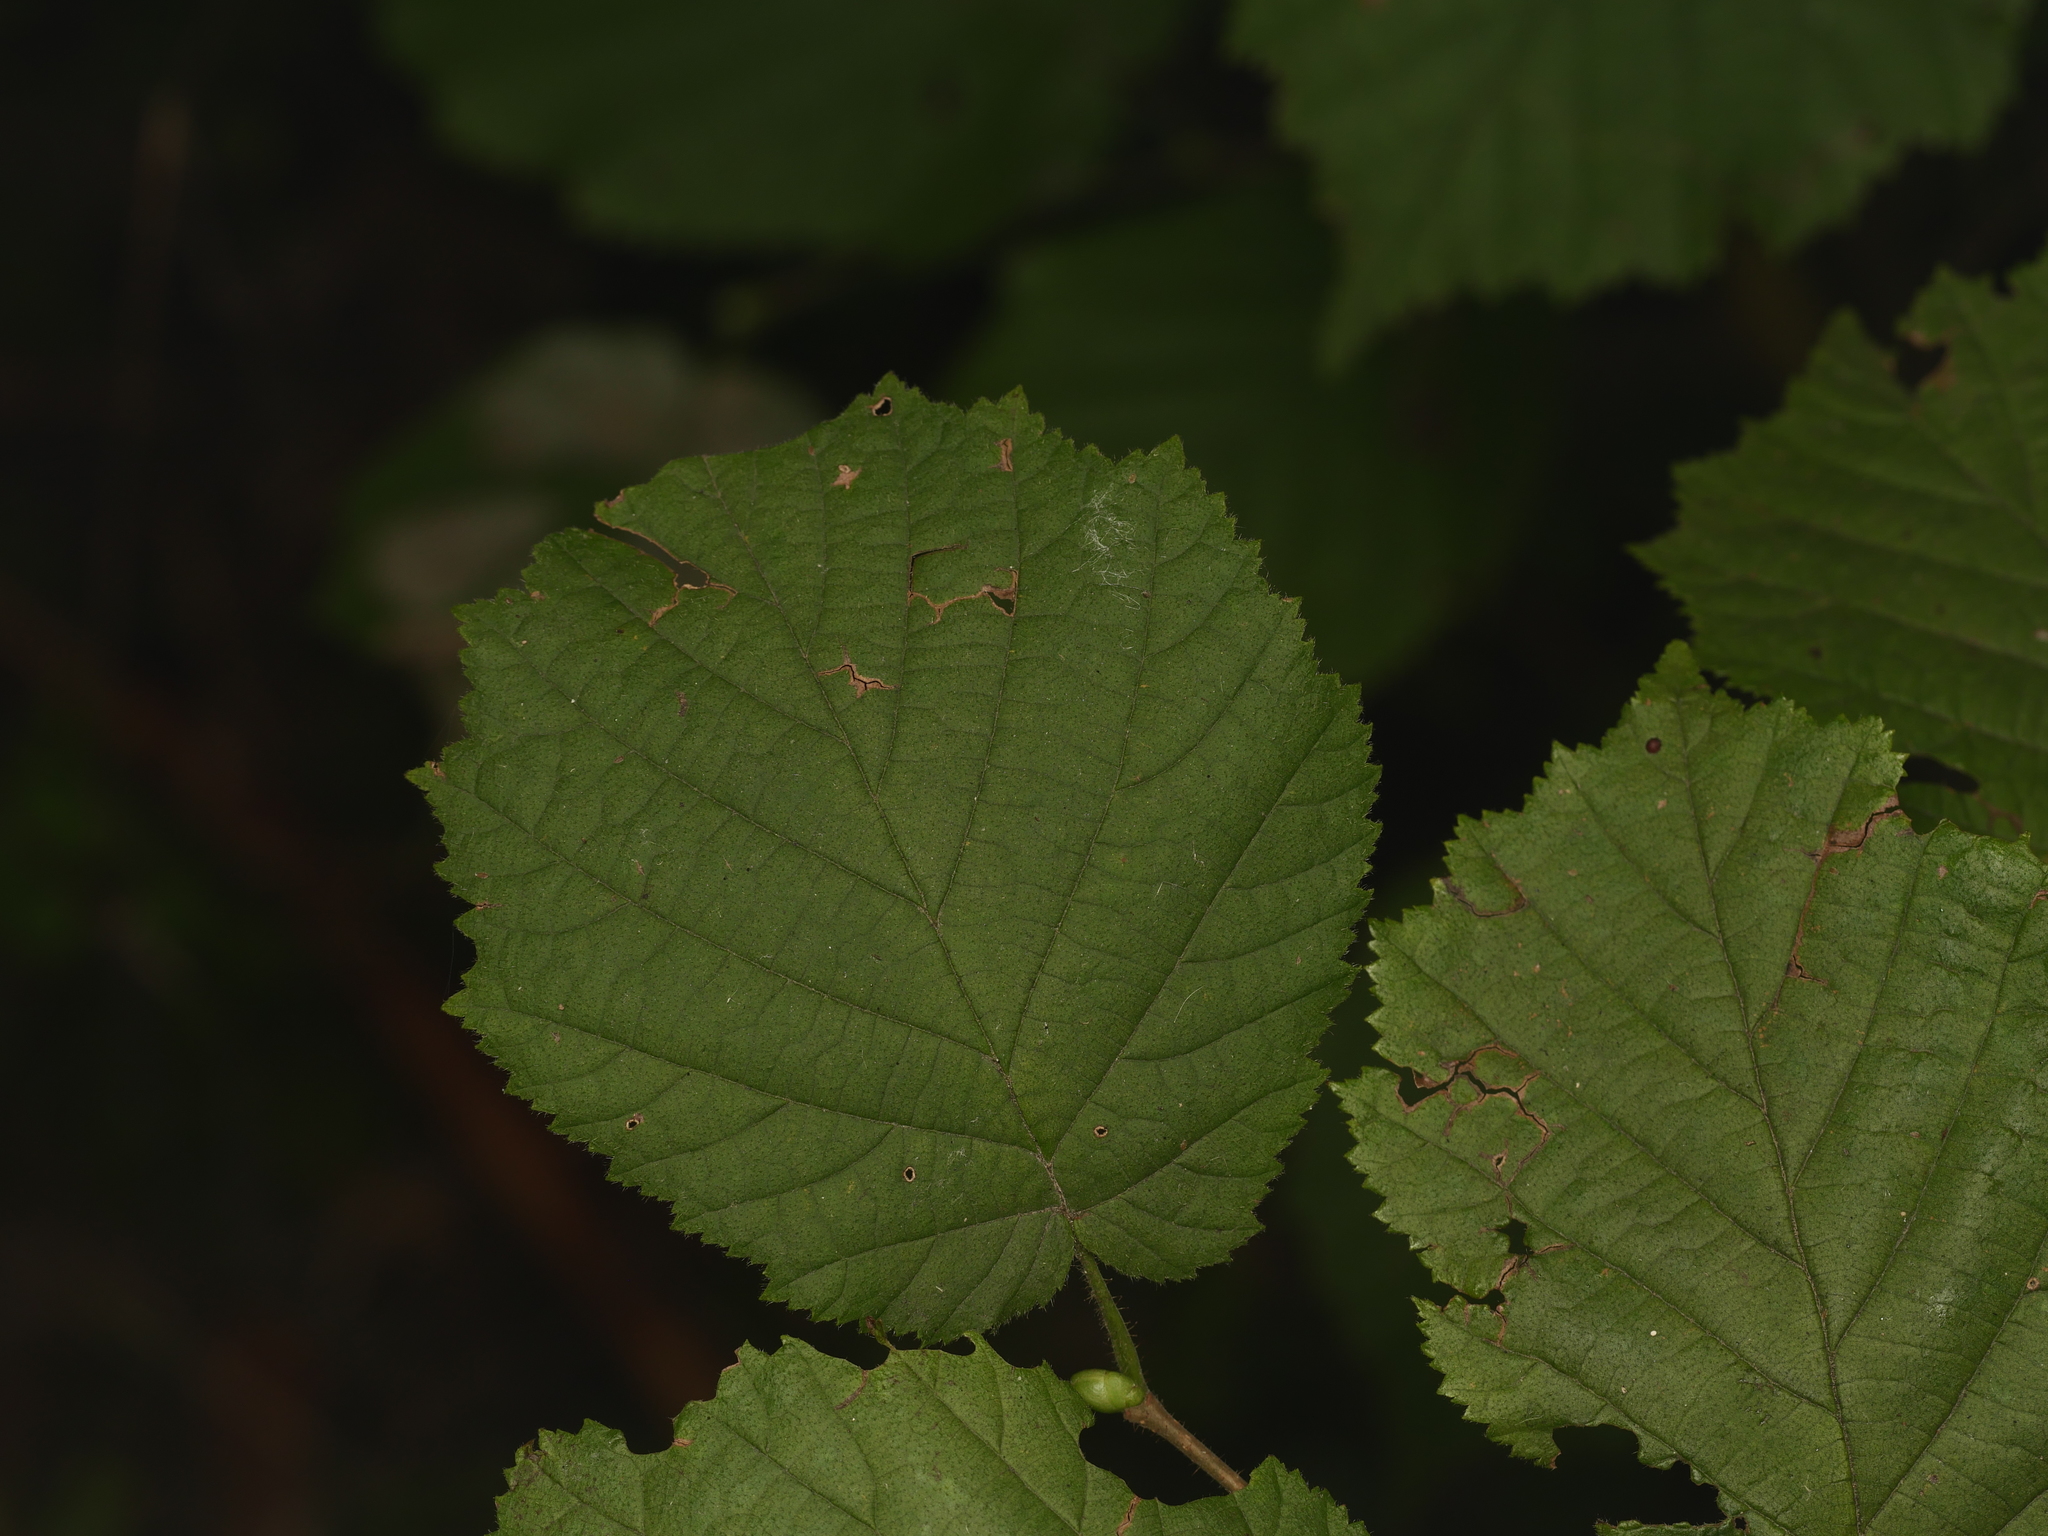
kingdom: Plantae
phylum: Tracheophyta
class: Magnoliopsida
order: Fagales
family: Betulaceae
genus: Corylus
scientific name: Corylus avellana
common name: European hazel
